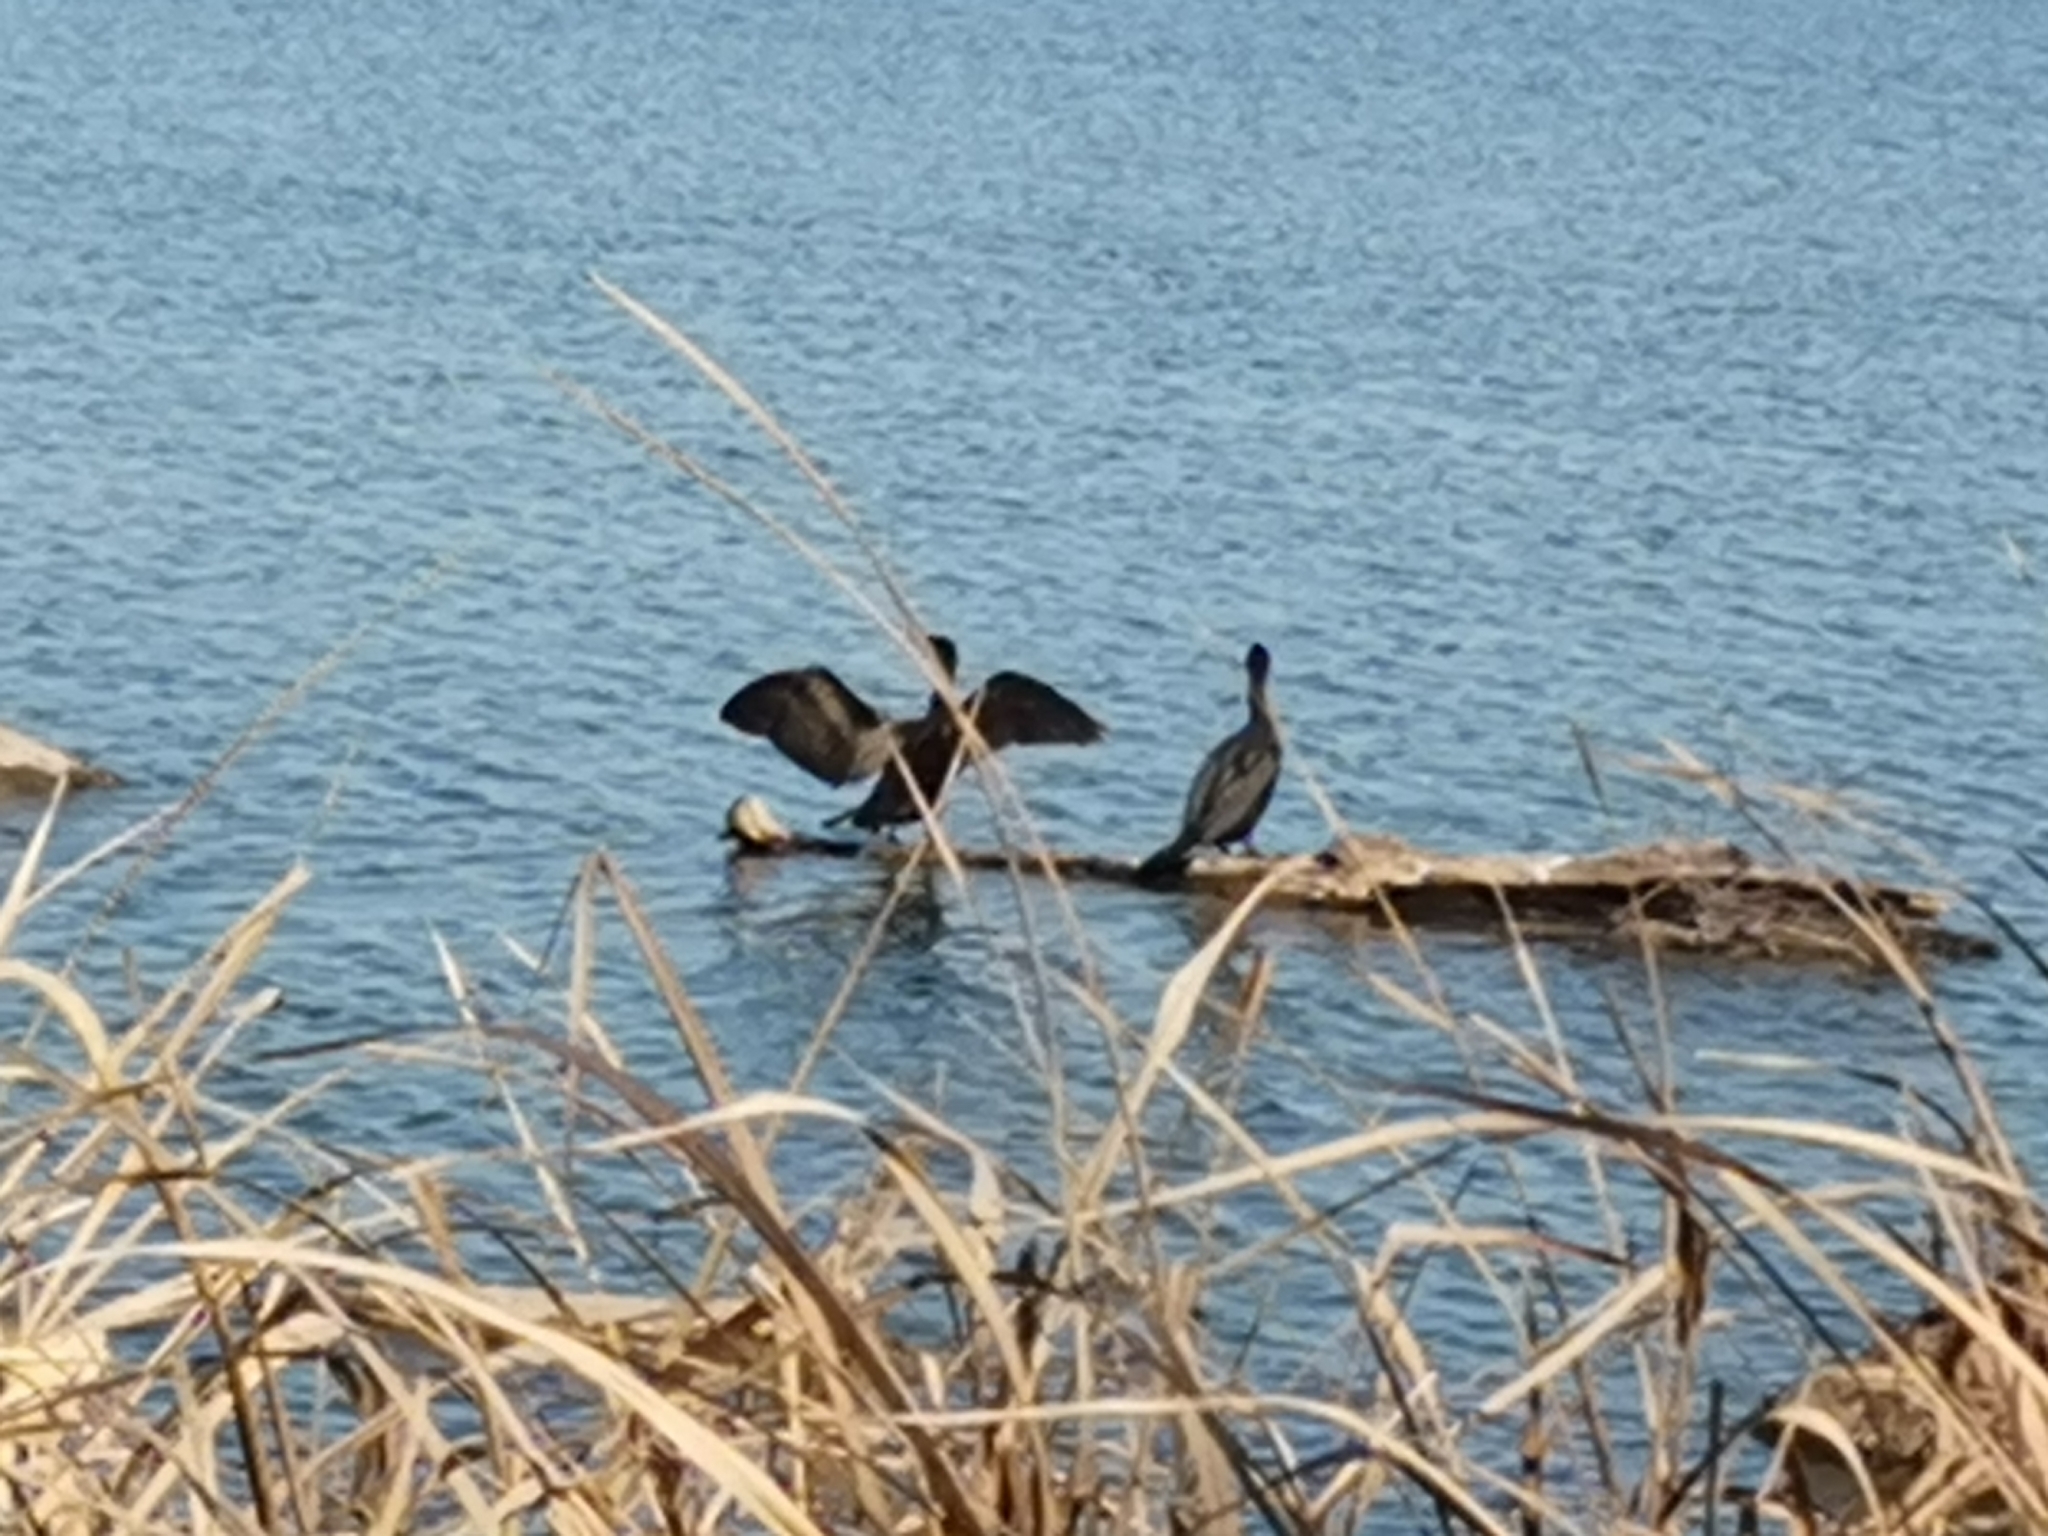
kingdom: Animalia
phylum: Chordata
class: Aves
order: Suliformes
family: Phalacrocoracidae
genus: Phalacrocorax
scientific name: Phalacrocorax auritus
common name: Double-crested cormorant
